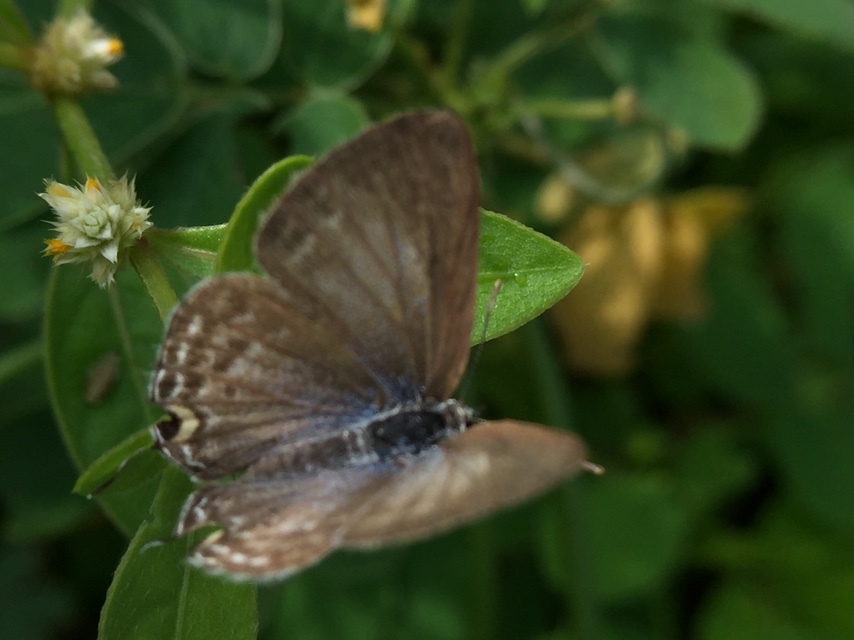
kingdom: Animalia
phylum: Arthropoda
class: Insecta
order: Lepidoptera
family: Lycaenidae
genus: Catochrysops
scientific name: Catochrysops strabo
